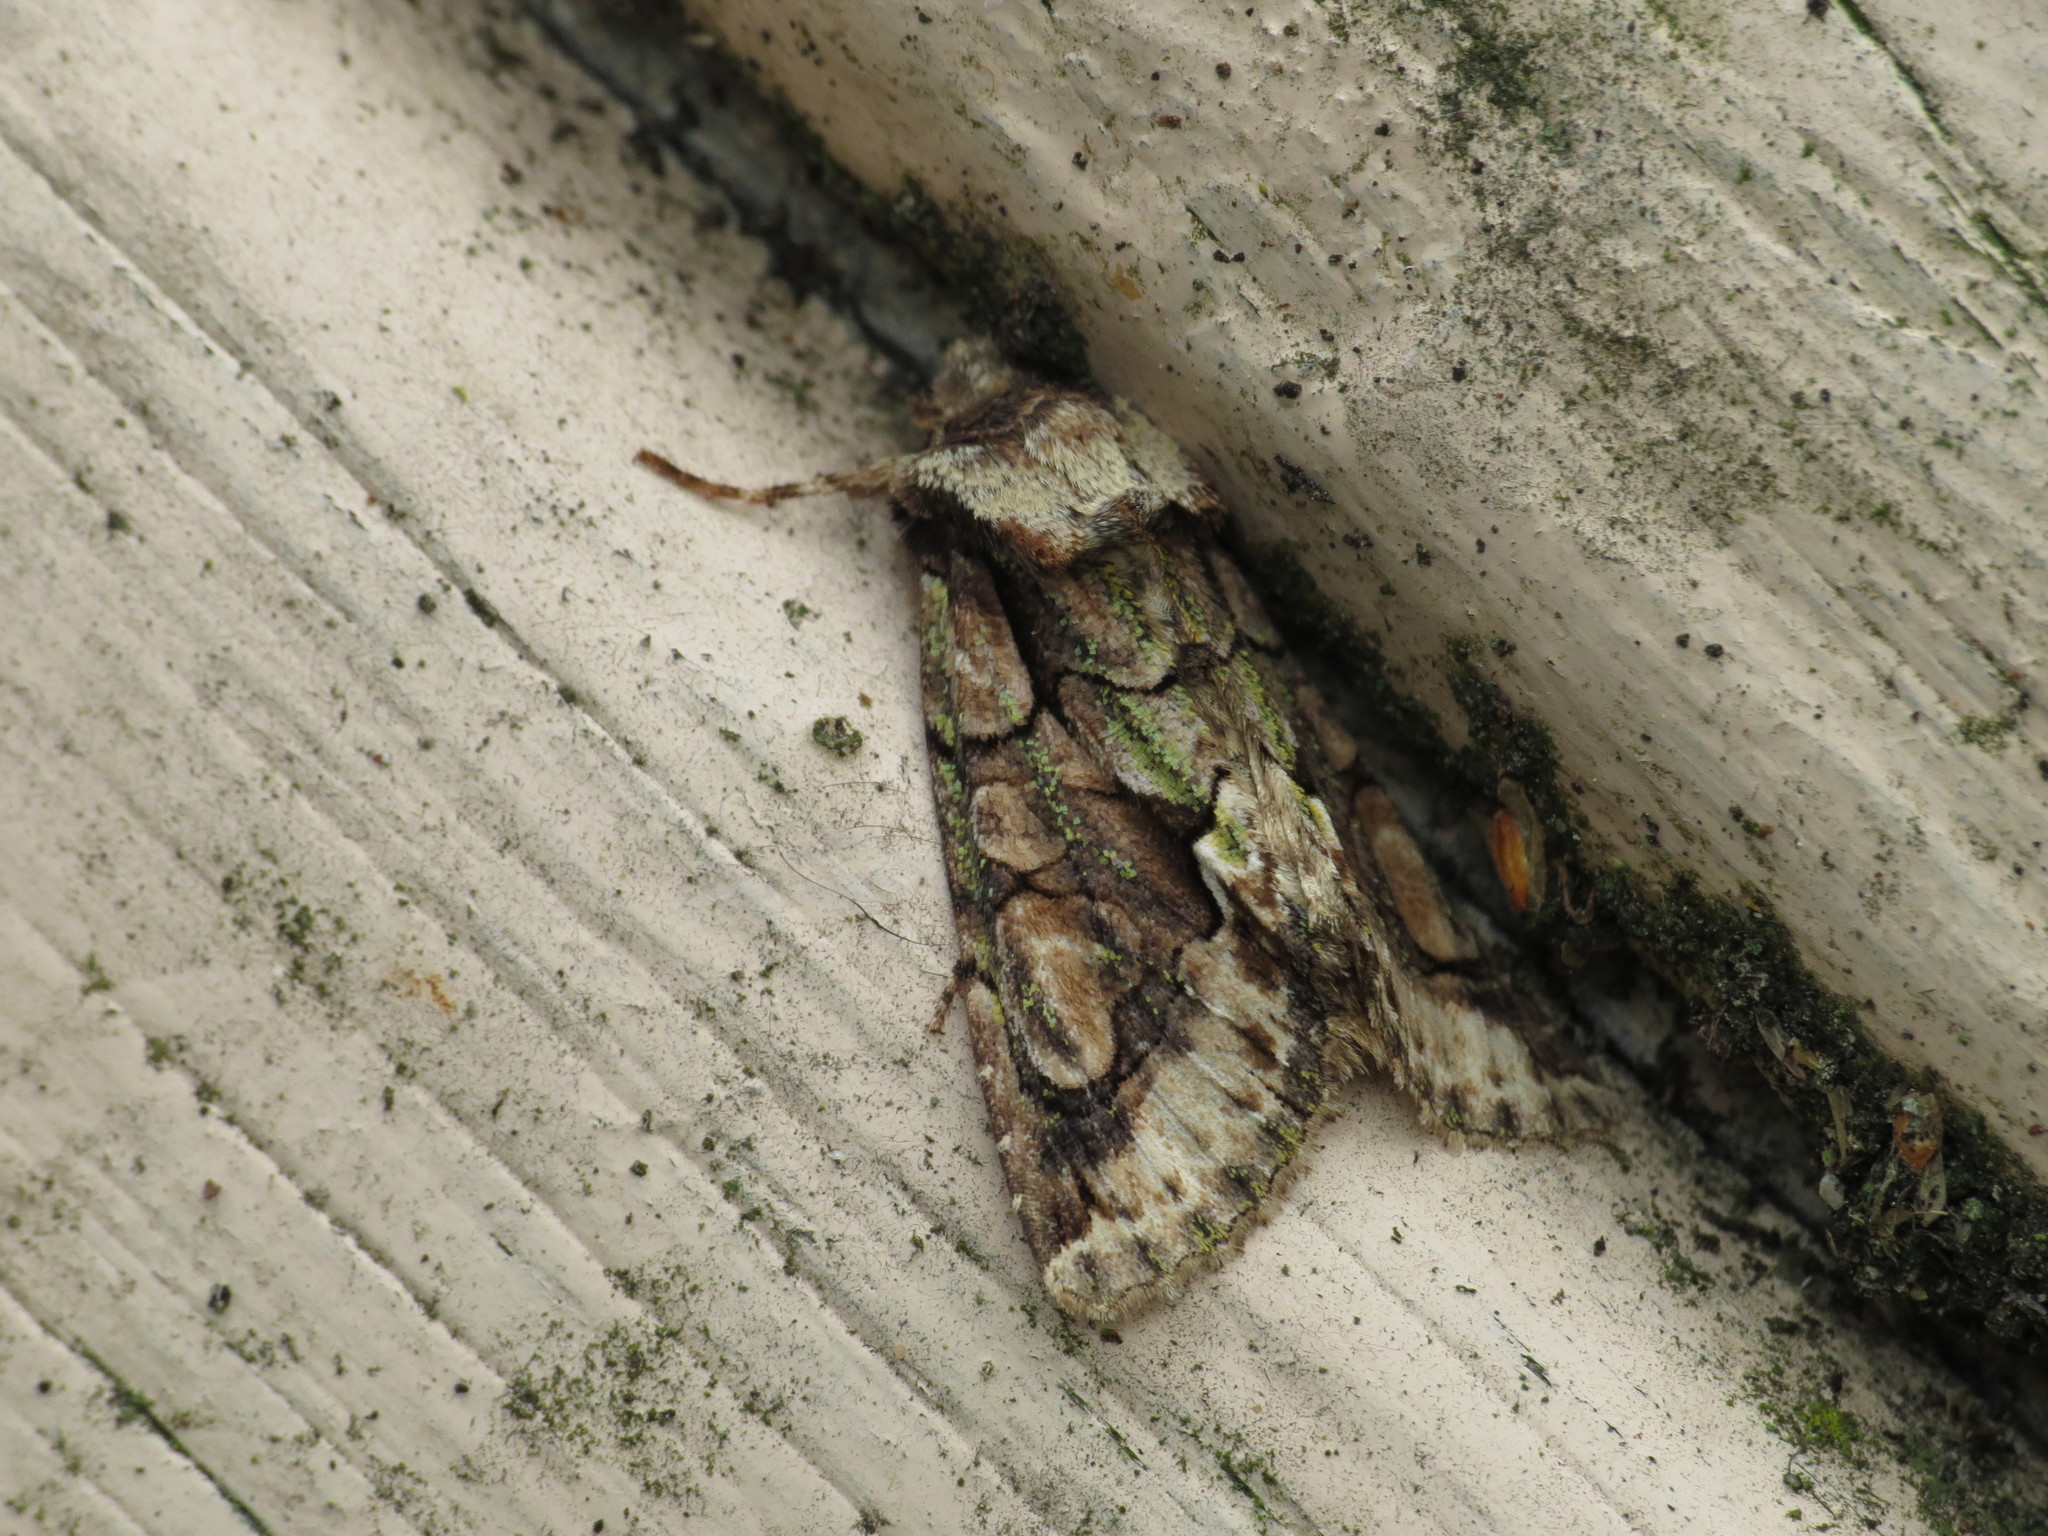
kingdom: Animalia
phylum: Arthropoda
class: Insecta
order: Lepidoptera
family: Noctuidae
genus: Allophyes
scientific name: Allophyes oxyacanthae
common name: Green-brindled crescent
